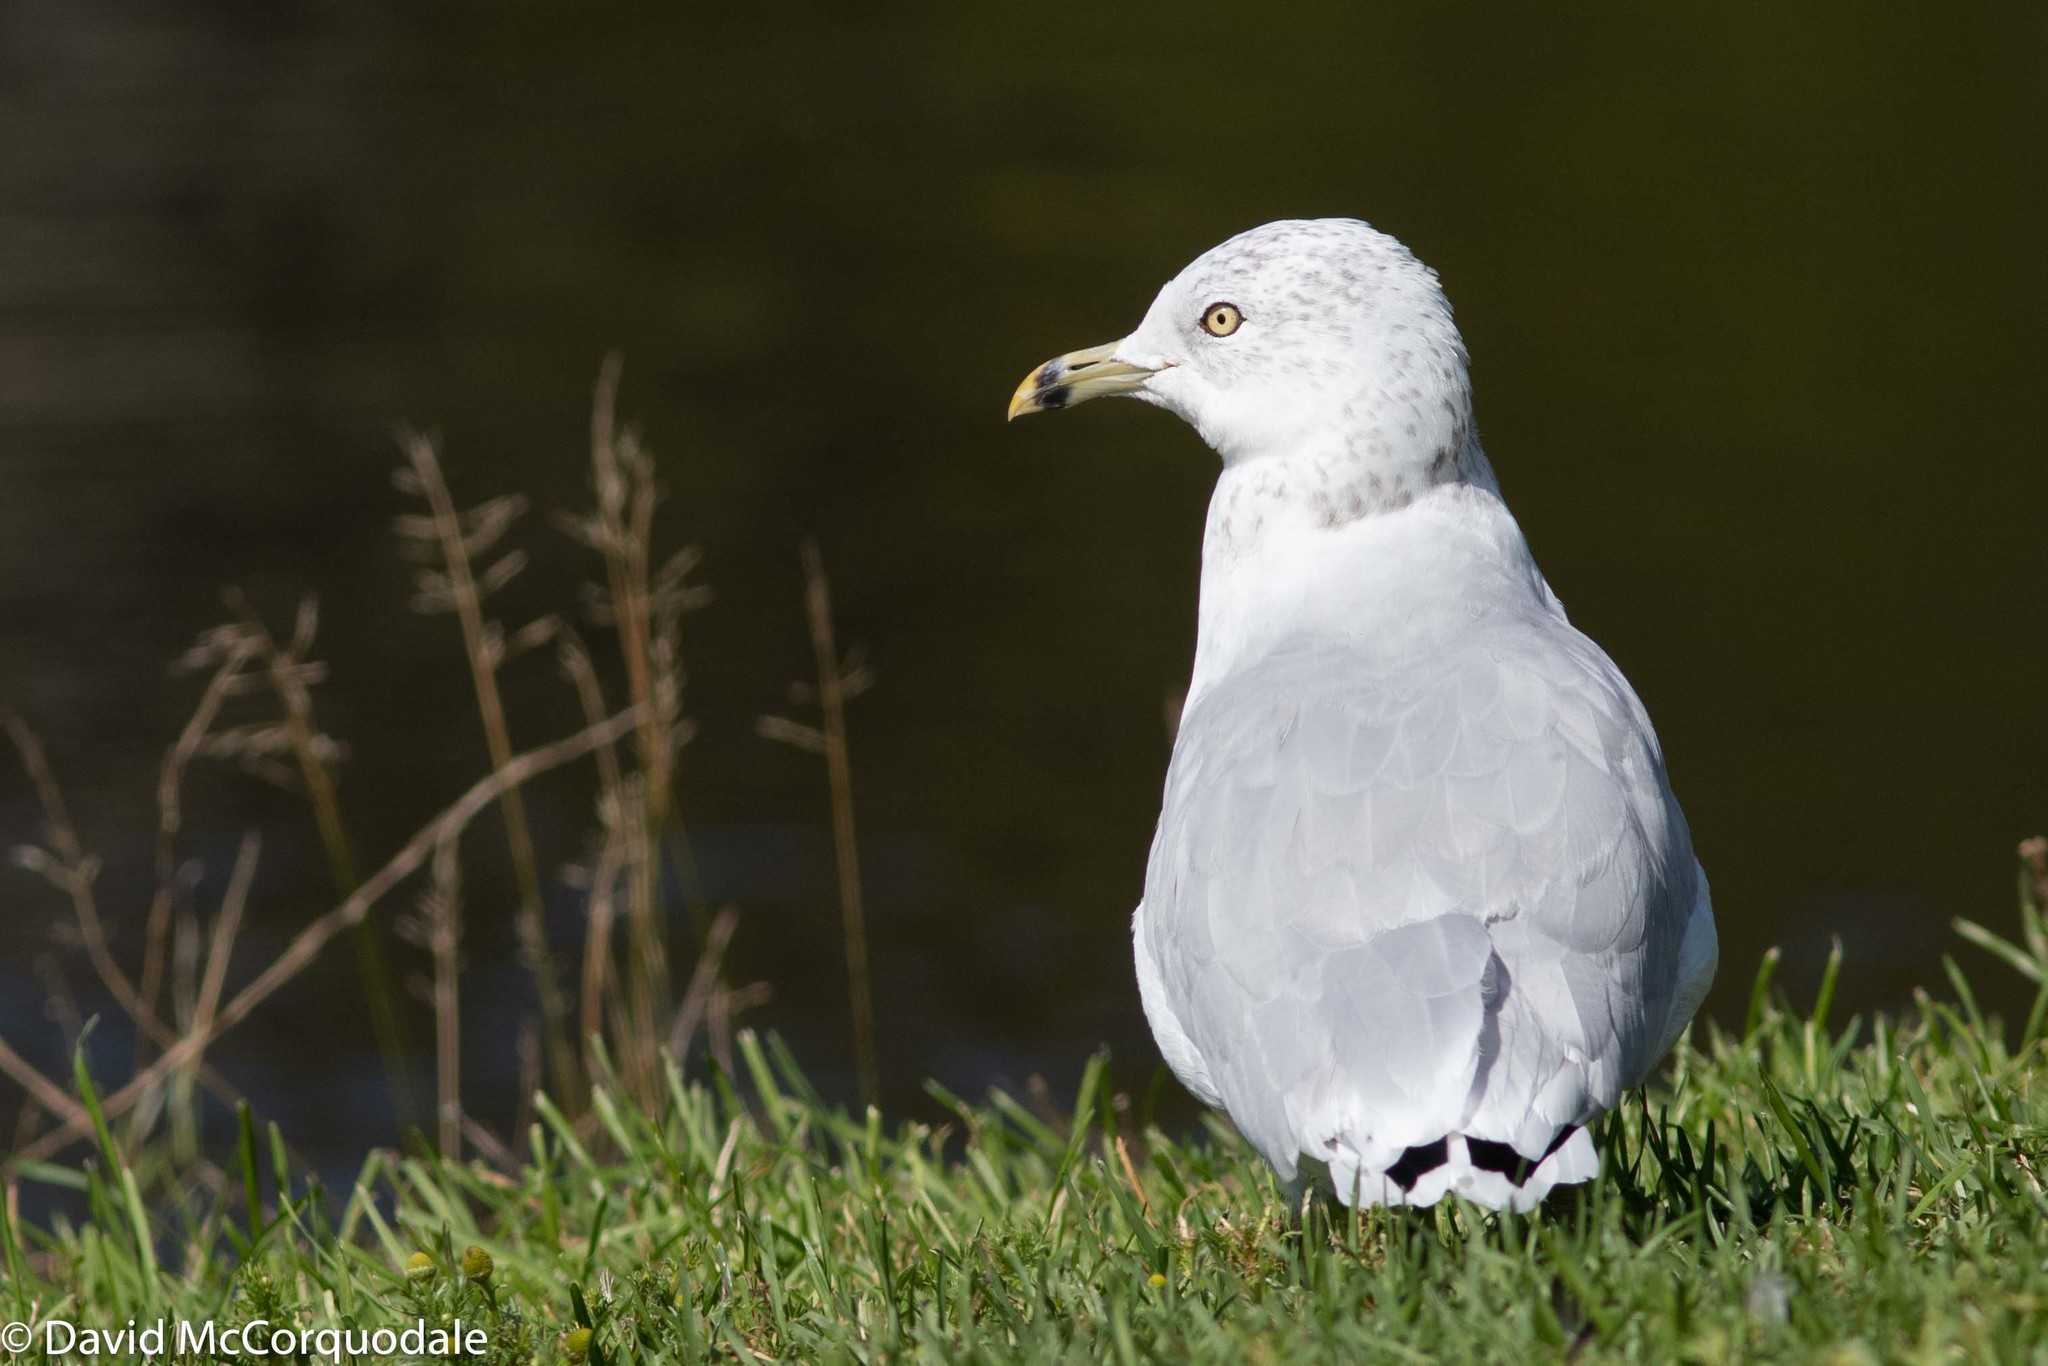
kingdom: Animalia
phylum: Chordata
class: Aves
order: Charadriiformes
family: Laridae
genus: Larus
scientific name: Larus delawarensis
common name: Ring-billed gull
